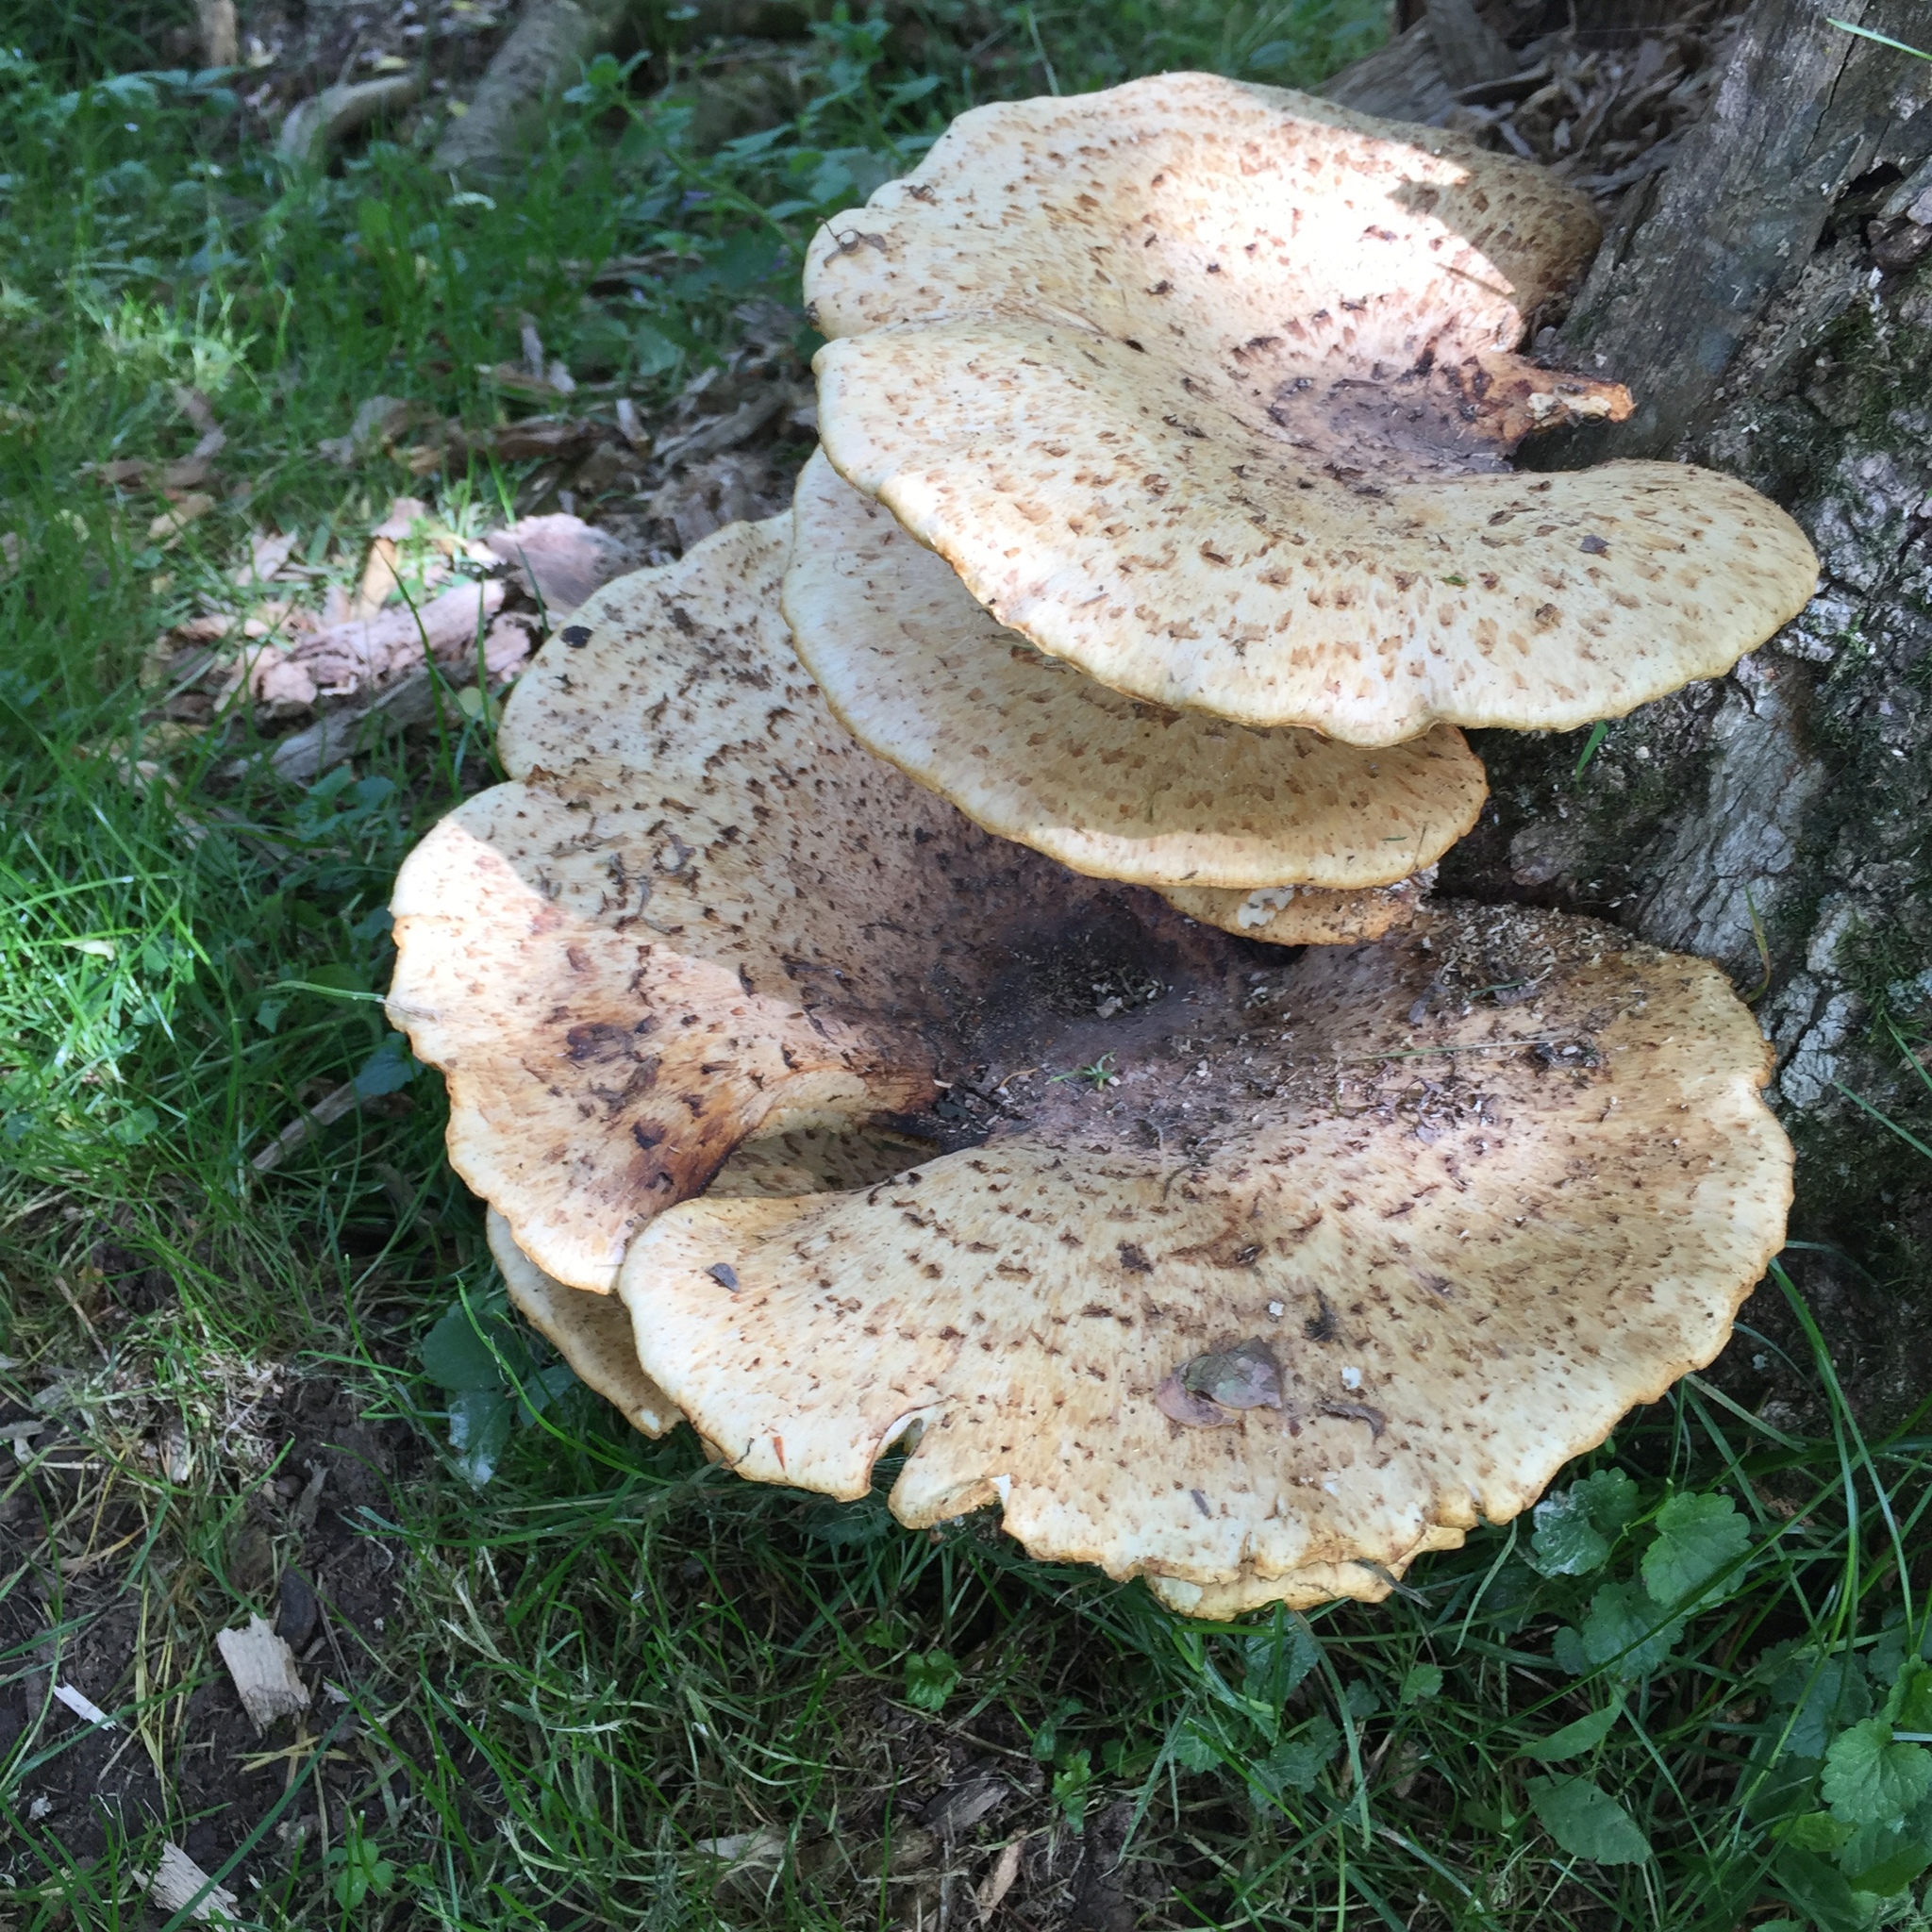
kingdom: Fungi
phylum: Basidiomycota
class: Agaricomycetes
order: Polyporales
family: Polyporaceae
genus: Cerioporus
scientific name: Cerioporus squamosus
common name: Dryad's saddle
